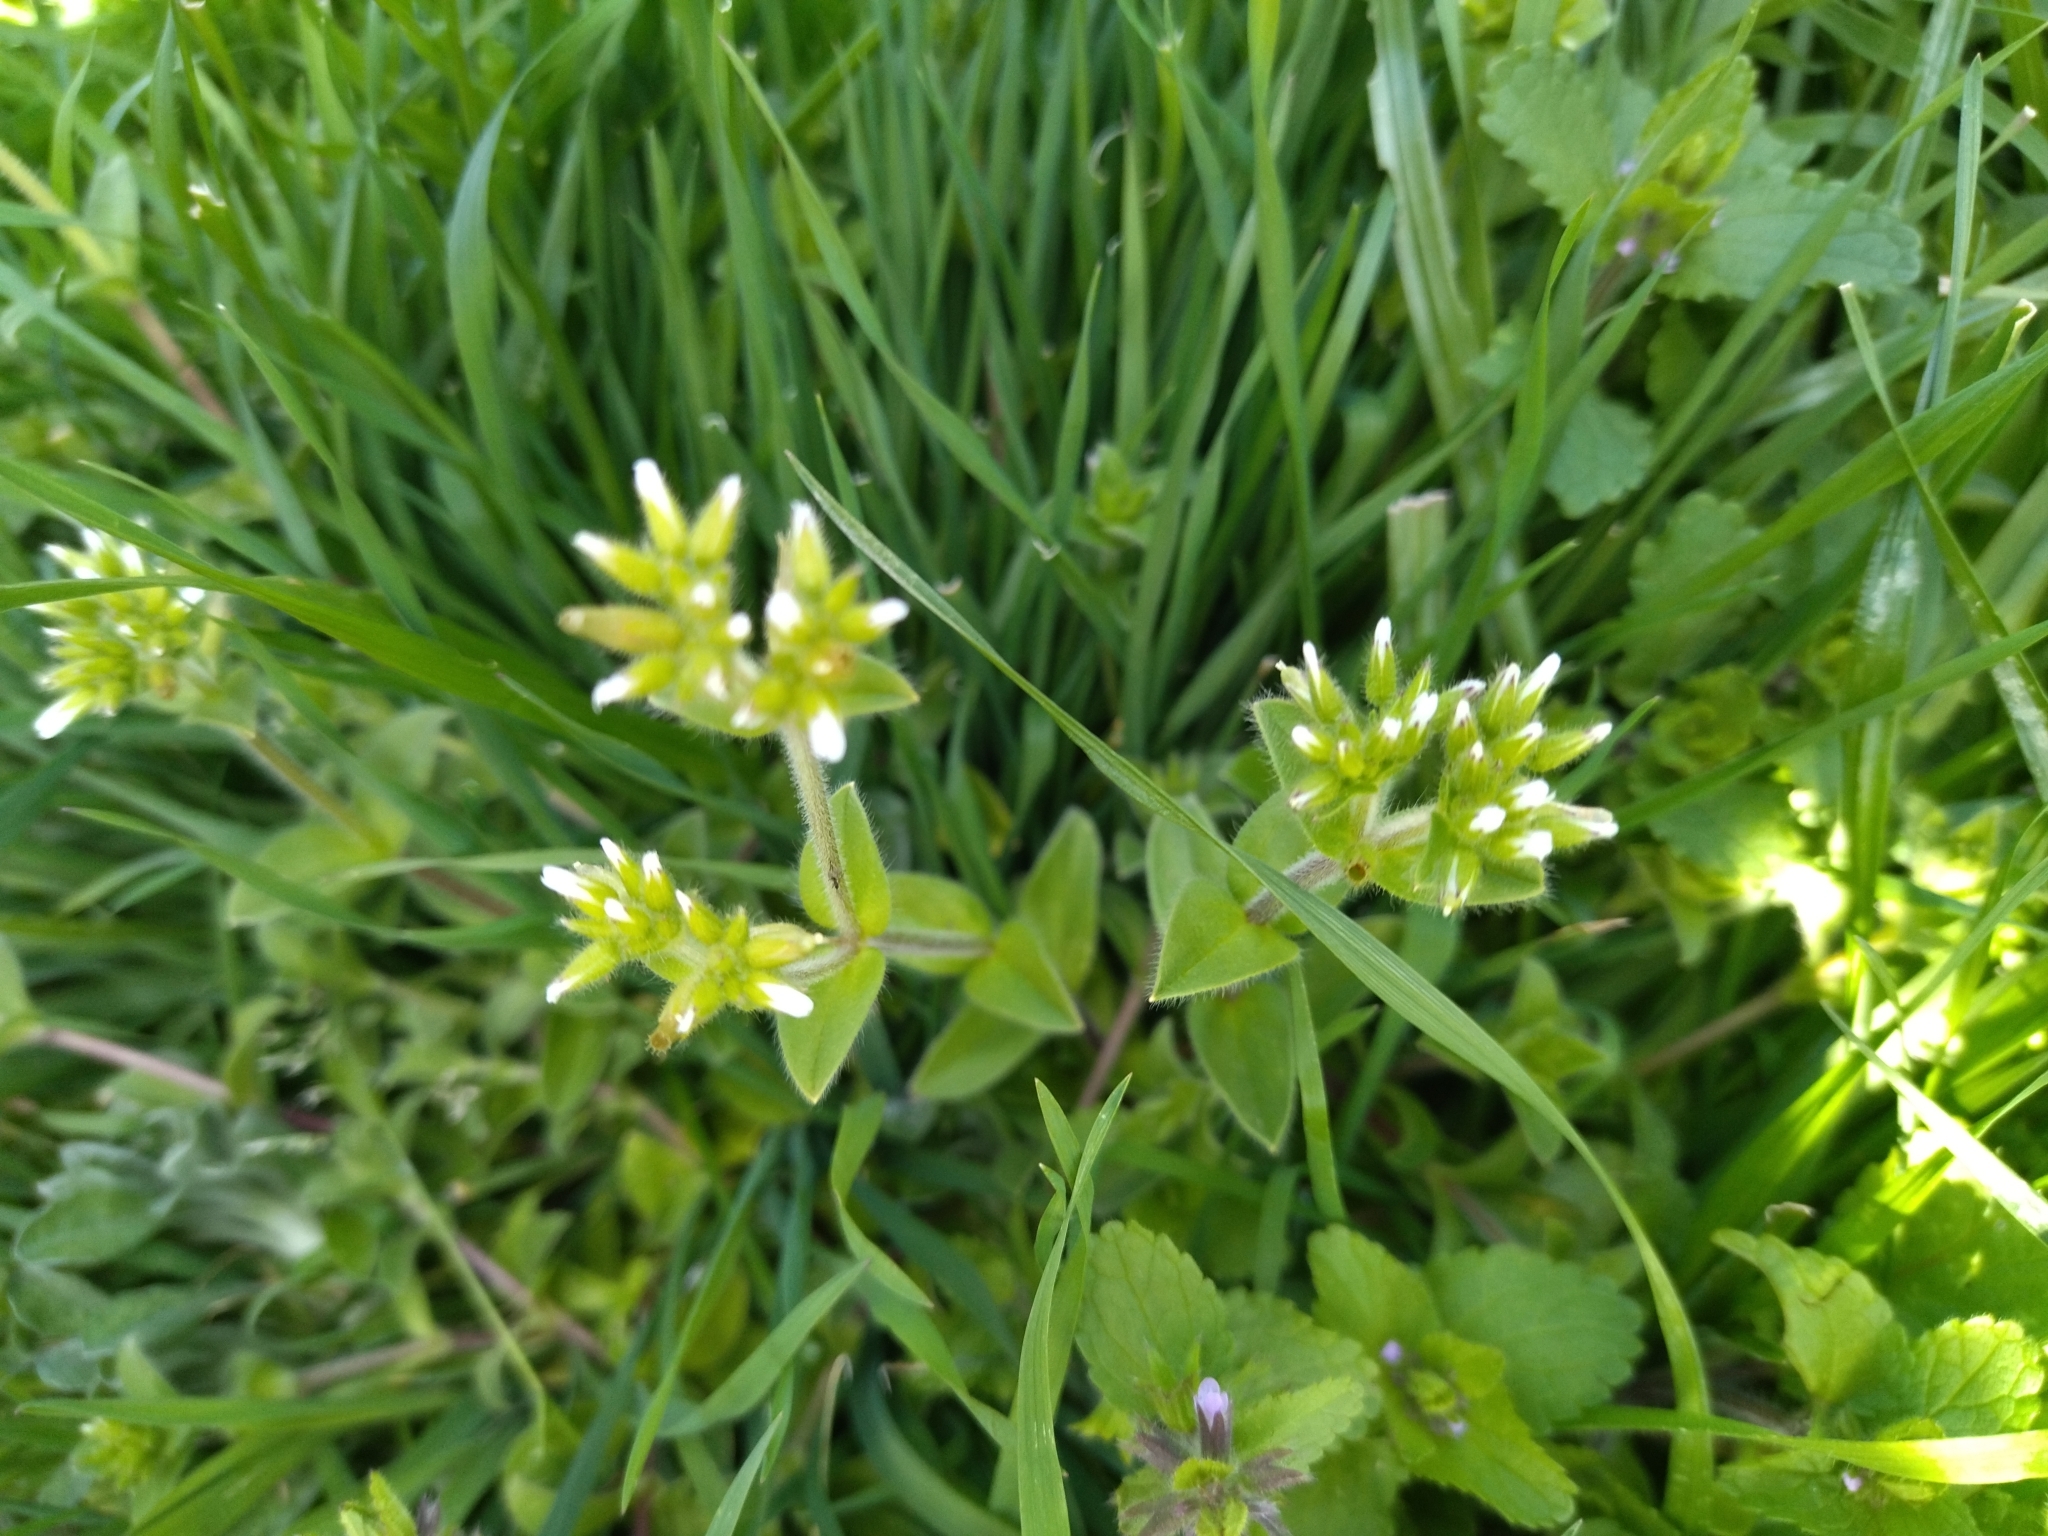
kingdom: Plantae
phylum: Tracheophyta
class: Magnoliopsida
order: Caryophyllales
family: Caryophyllaceae
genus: Cerastium
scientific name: Cerastium glomeratum
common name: Sticky chickweed
